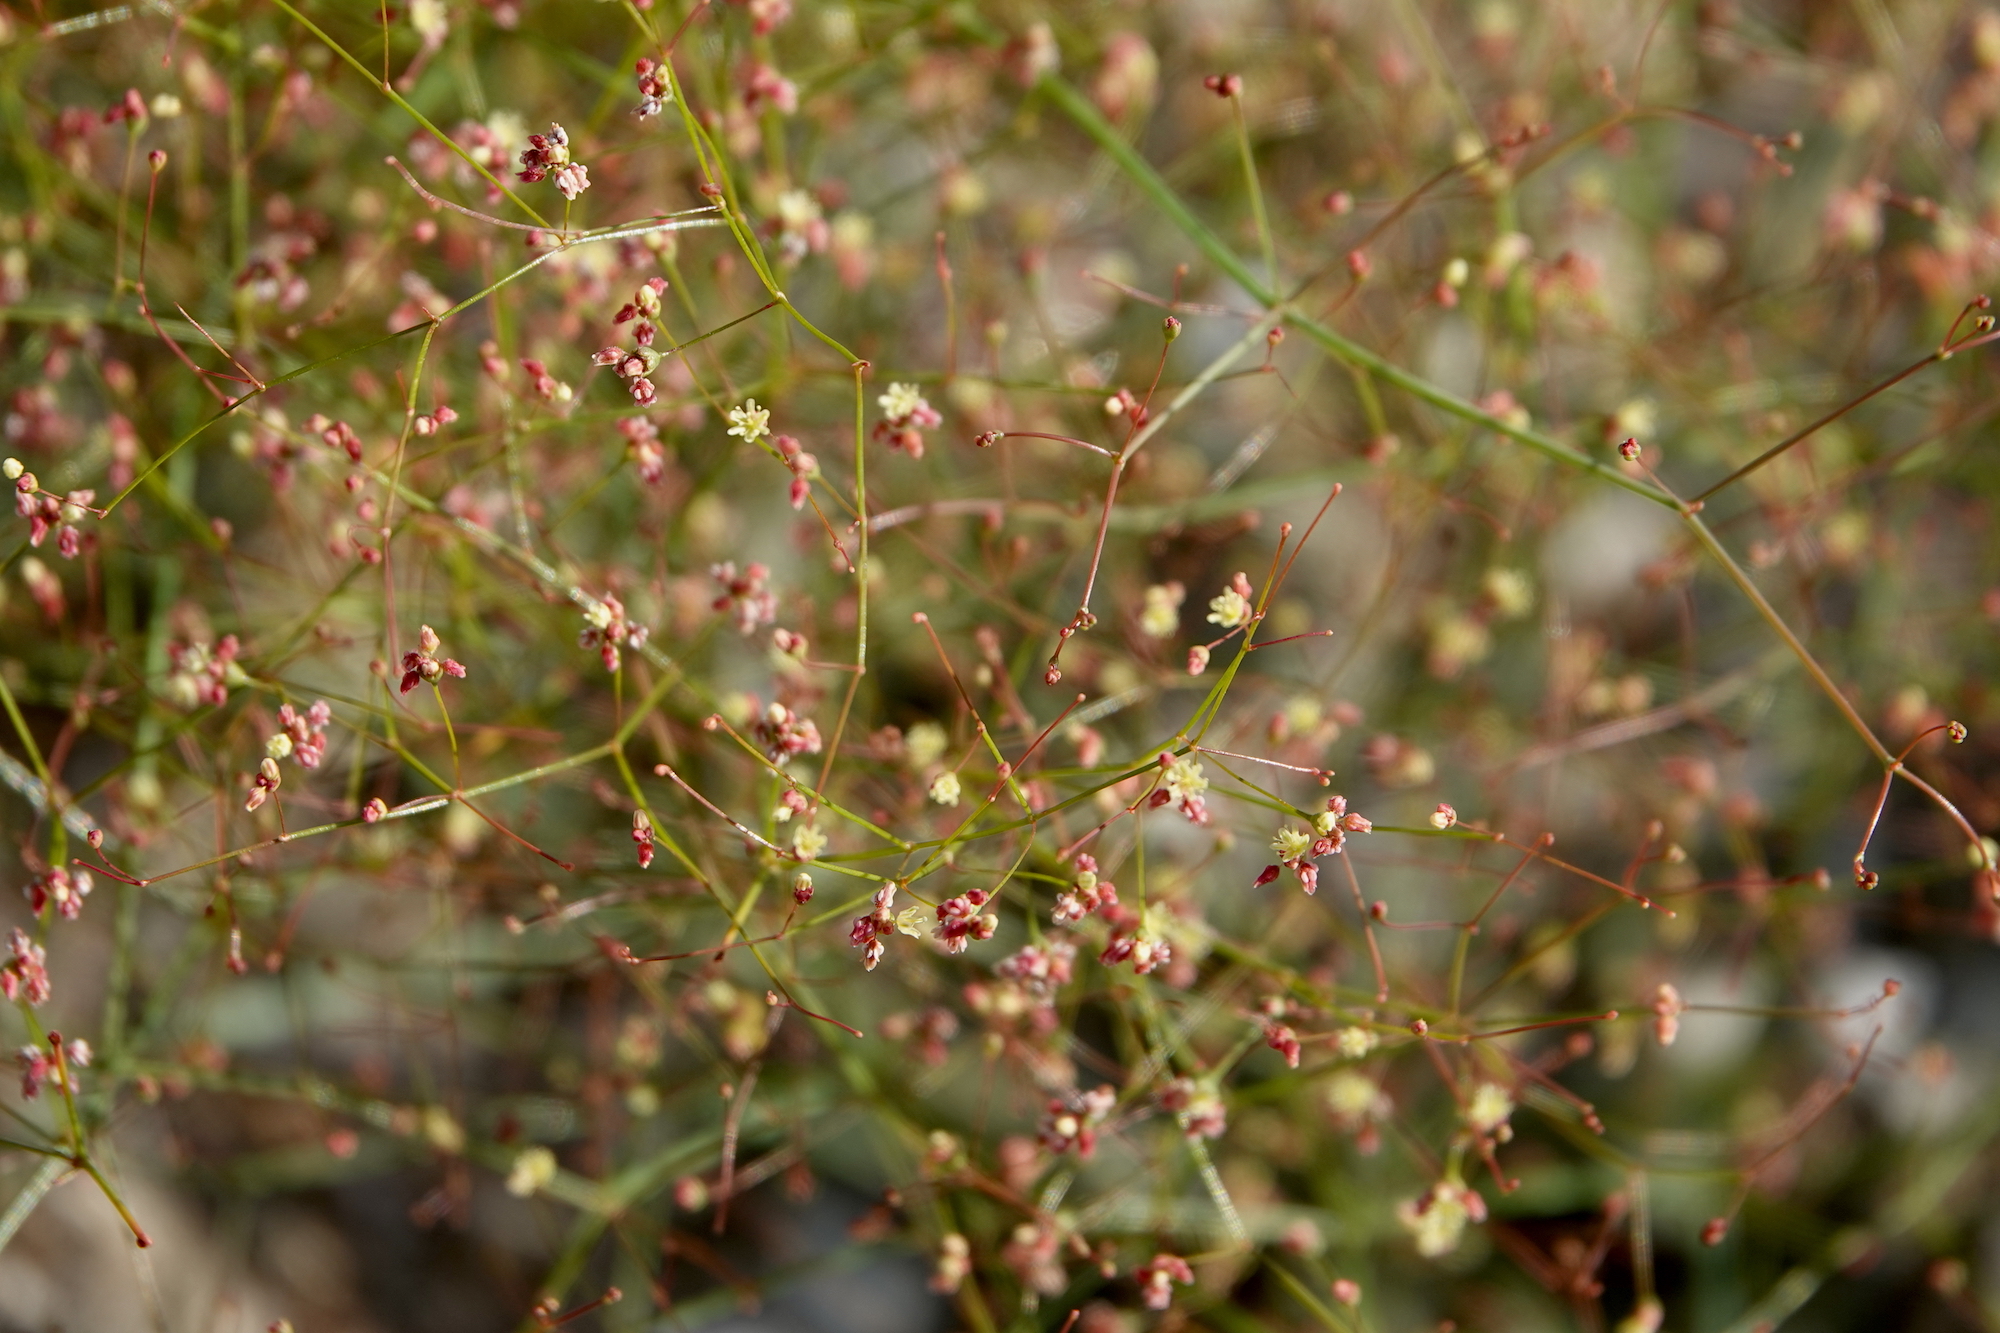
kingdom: Plantae
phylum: Tracheophyta
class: Magnoliopsida
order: Caryophyllales
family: Polygonaceae
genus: Eriogonum
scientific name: Eriogonum thomasii
